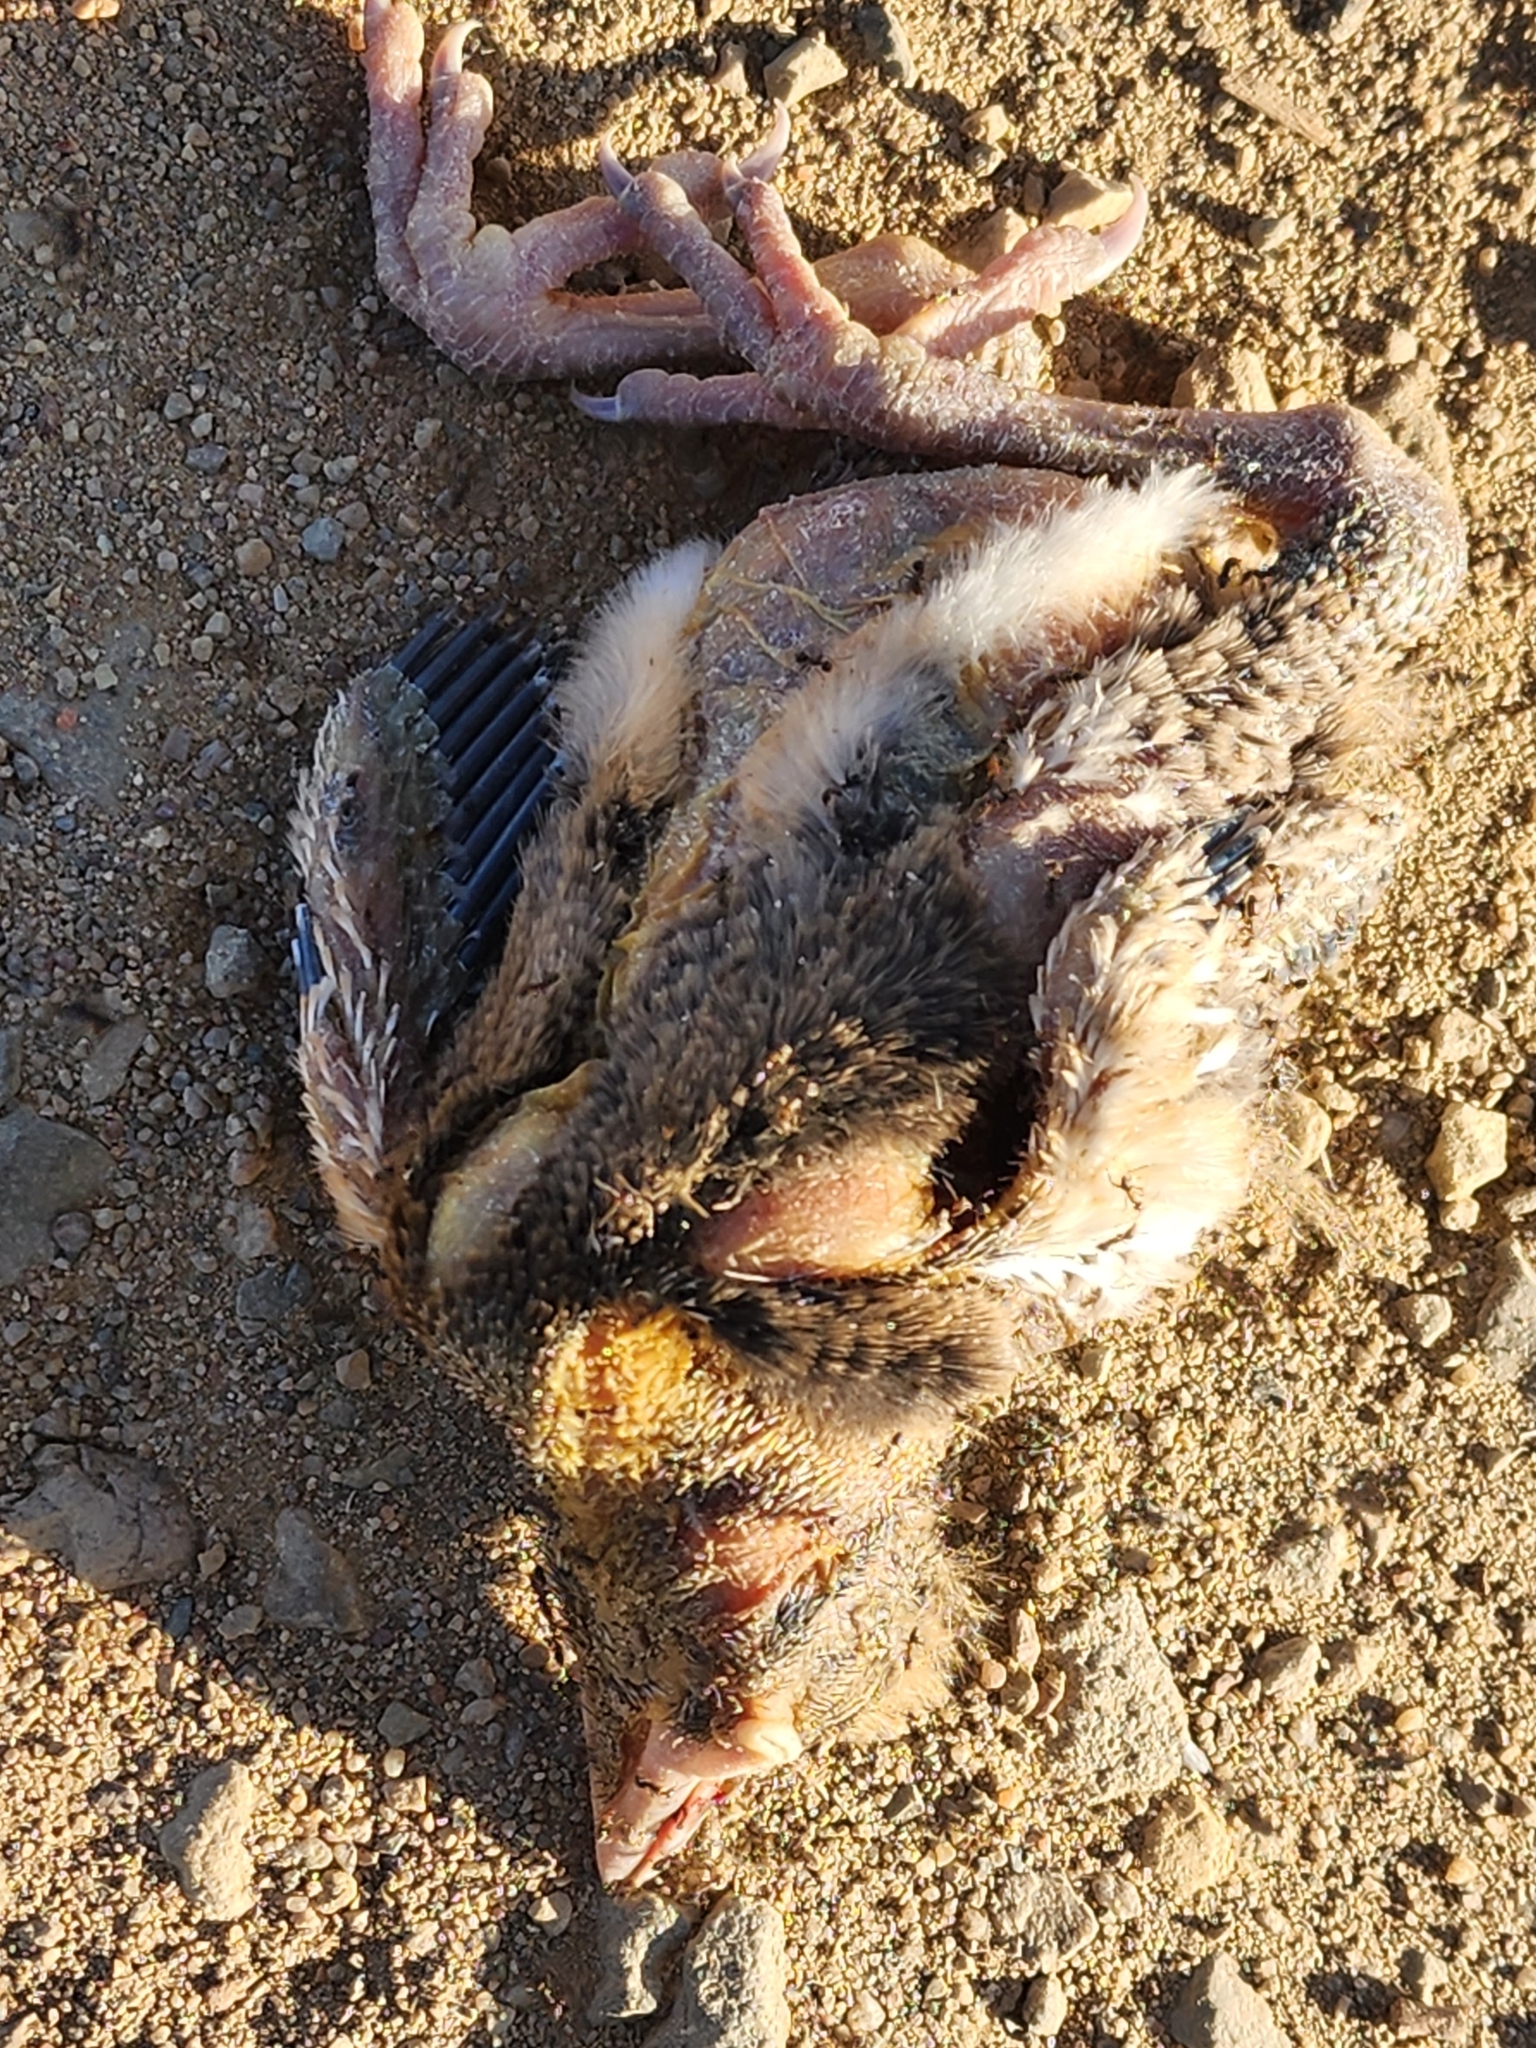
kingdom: Animalia
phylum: Chordata
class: Aves
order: Passeriformes
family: Cracticidae
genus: Gymnorhina
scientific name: Gymnorhina tibicen
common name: Australian magpie
